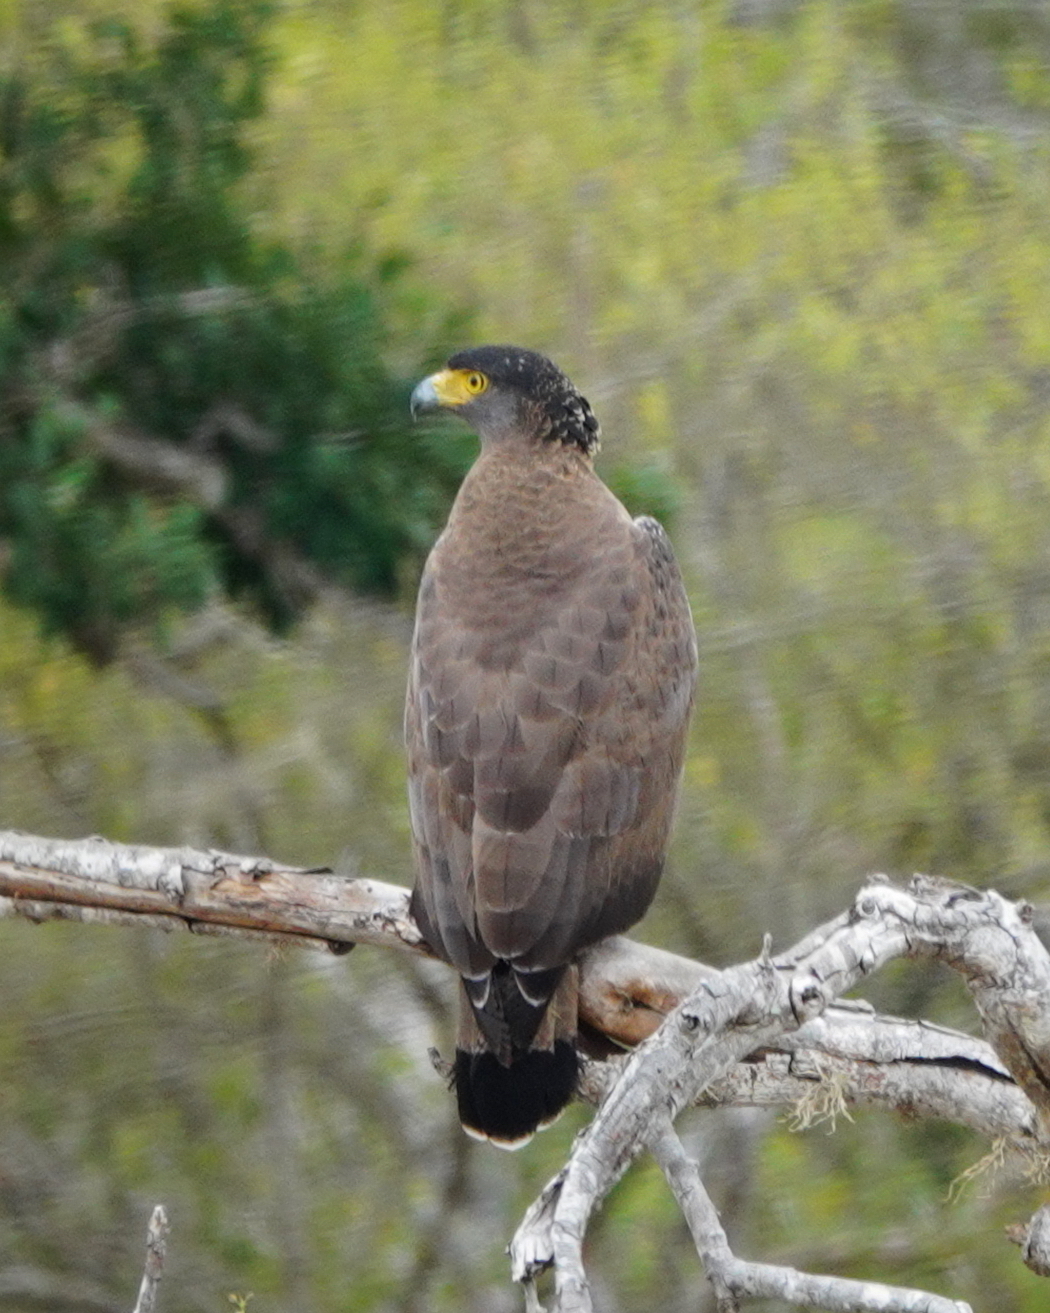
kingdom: Animalia
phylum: Chordata
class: Aves
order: Accipitriformes
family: Accipitridae
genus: Spilornis
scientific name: Spilornis cheela
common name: Crested serpent eagle
